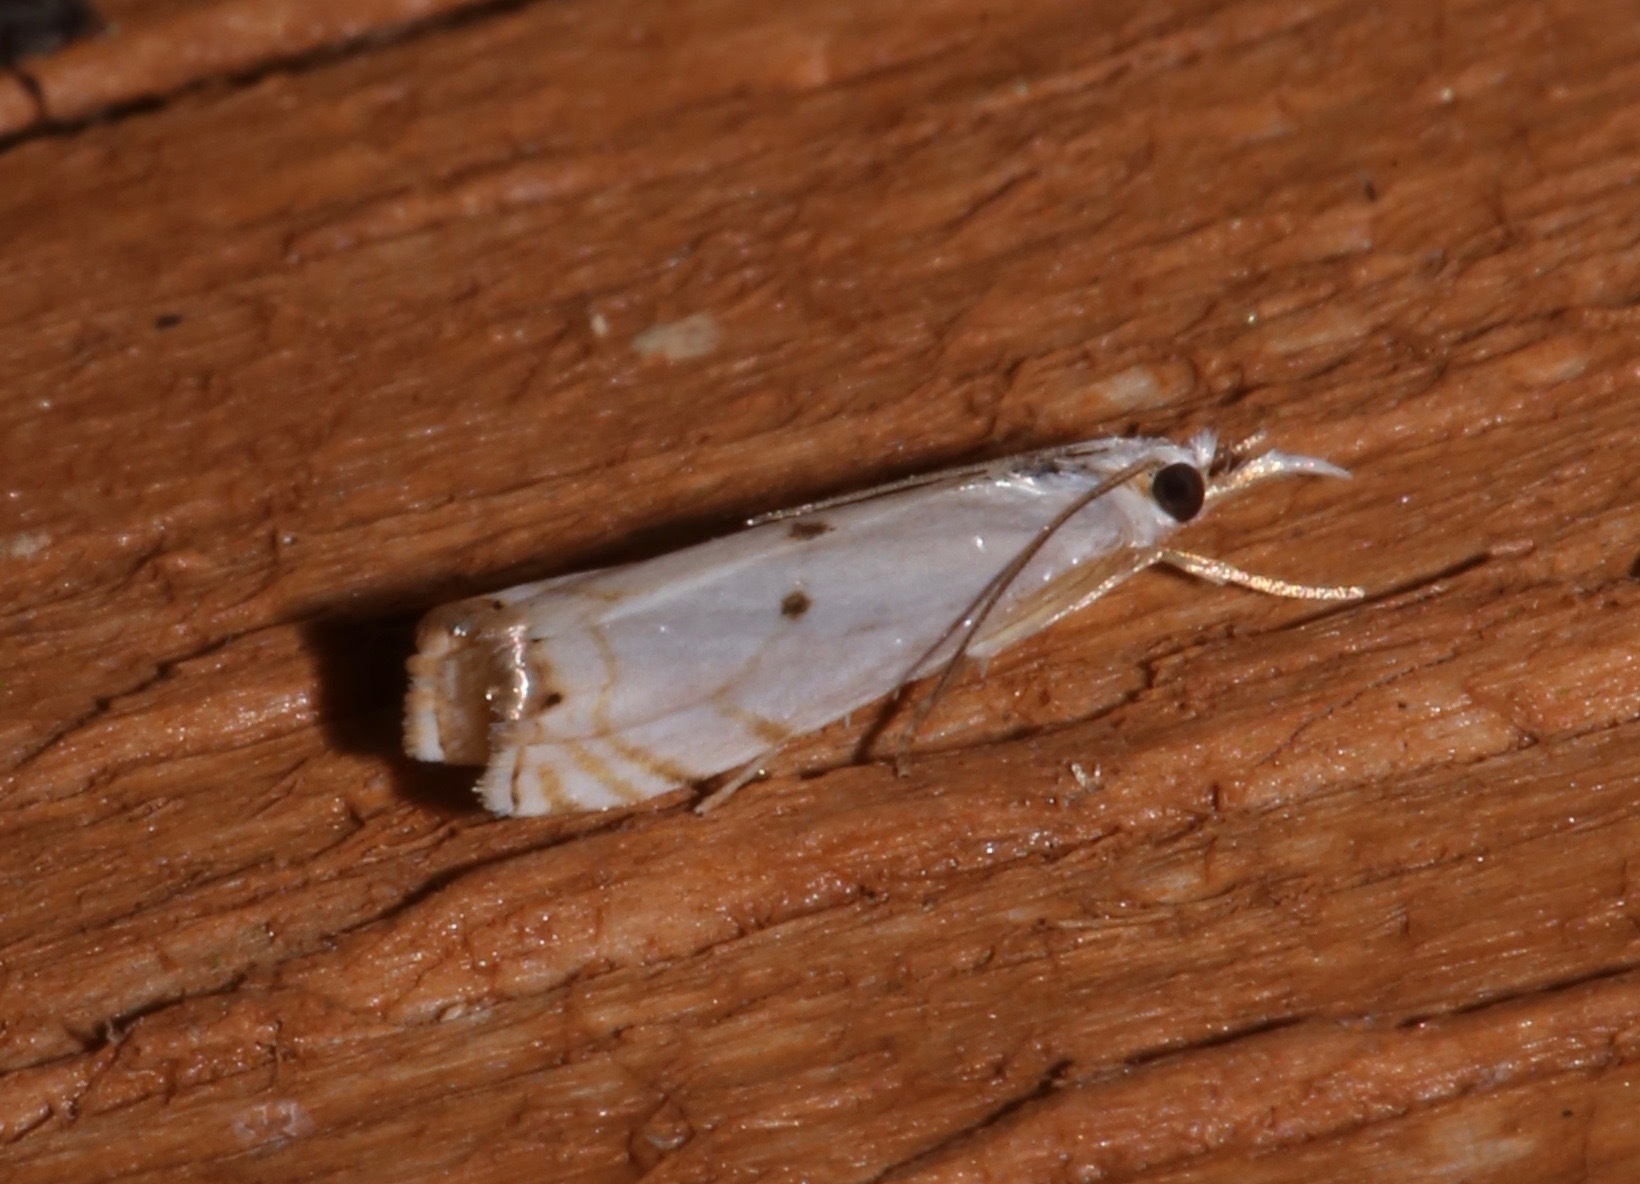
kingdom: Animalia
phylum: Arthropoda
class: Insecta
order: Lepidoptera
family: Crambidae
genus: Microcrambus
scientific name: Microcrambus biguttellus
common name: Gold-stripe grass-veneer moth
